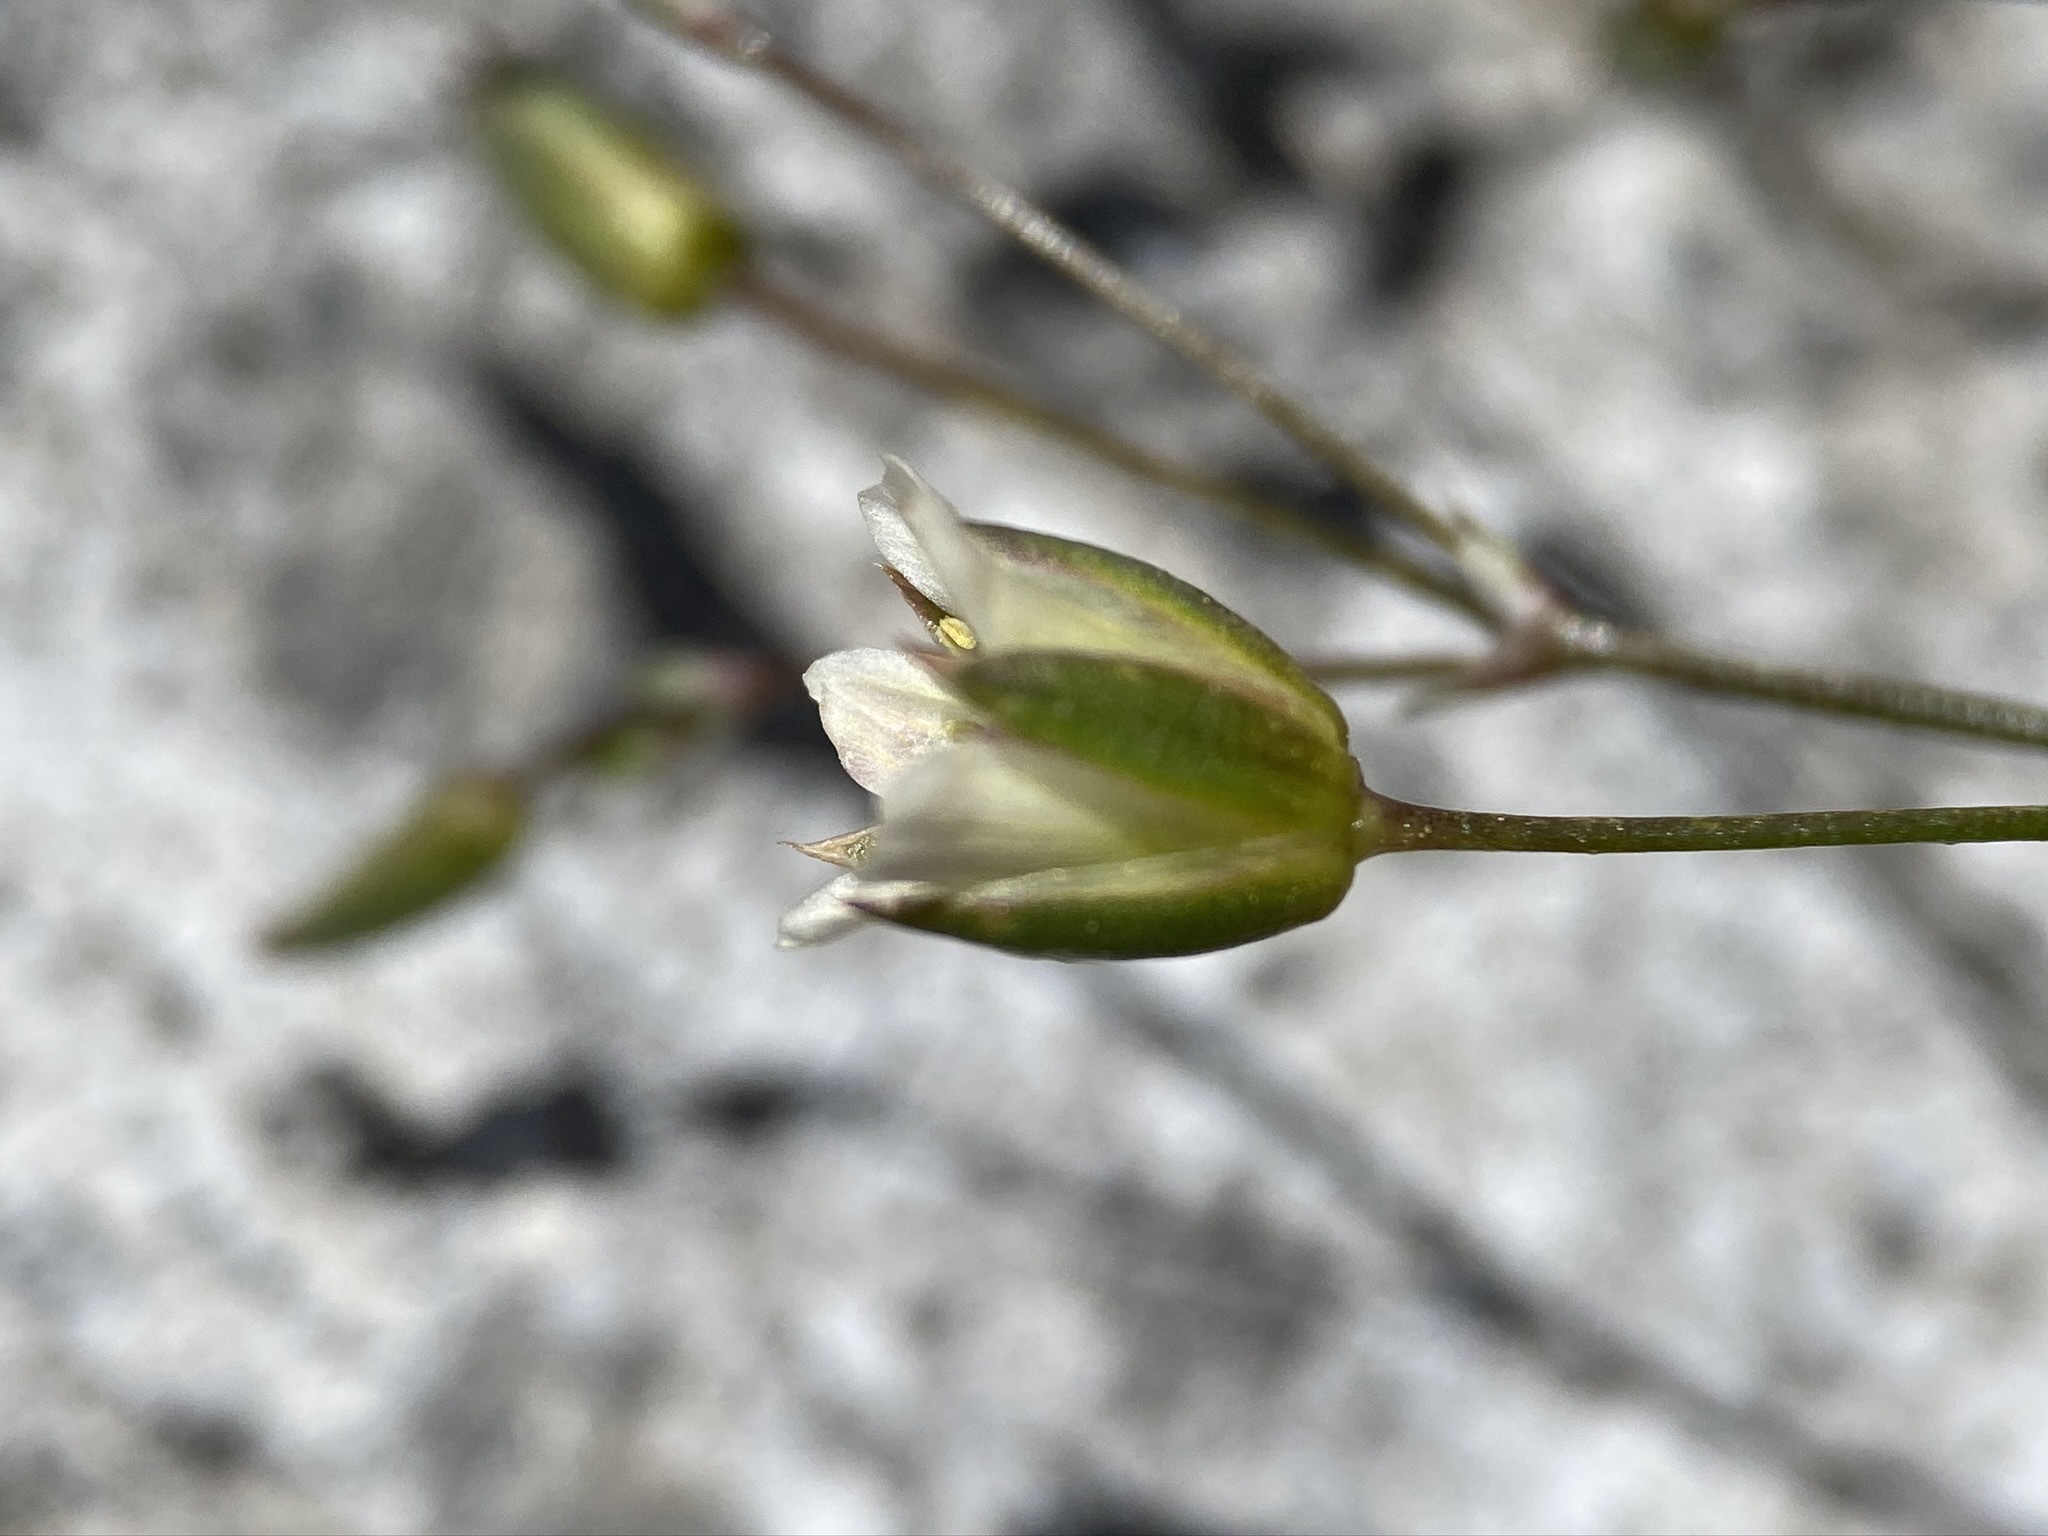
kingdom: Plantae
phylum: Tracheophyta
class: Magnoliopsida
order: Caryophyllales
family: Caryophyllaceae
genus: Eremogone
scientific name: Eremogone macradenia
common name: Mohave sandwort
